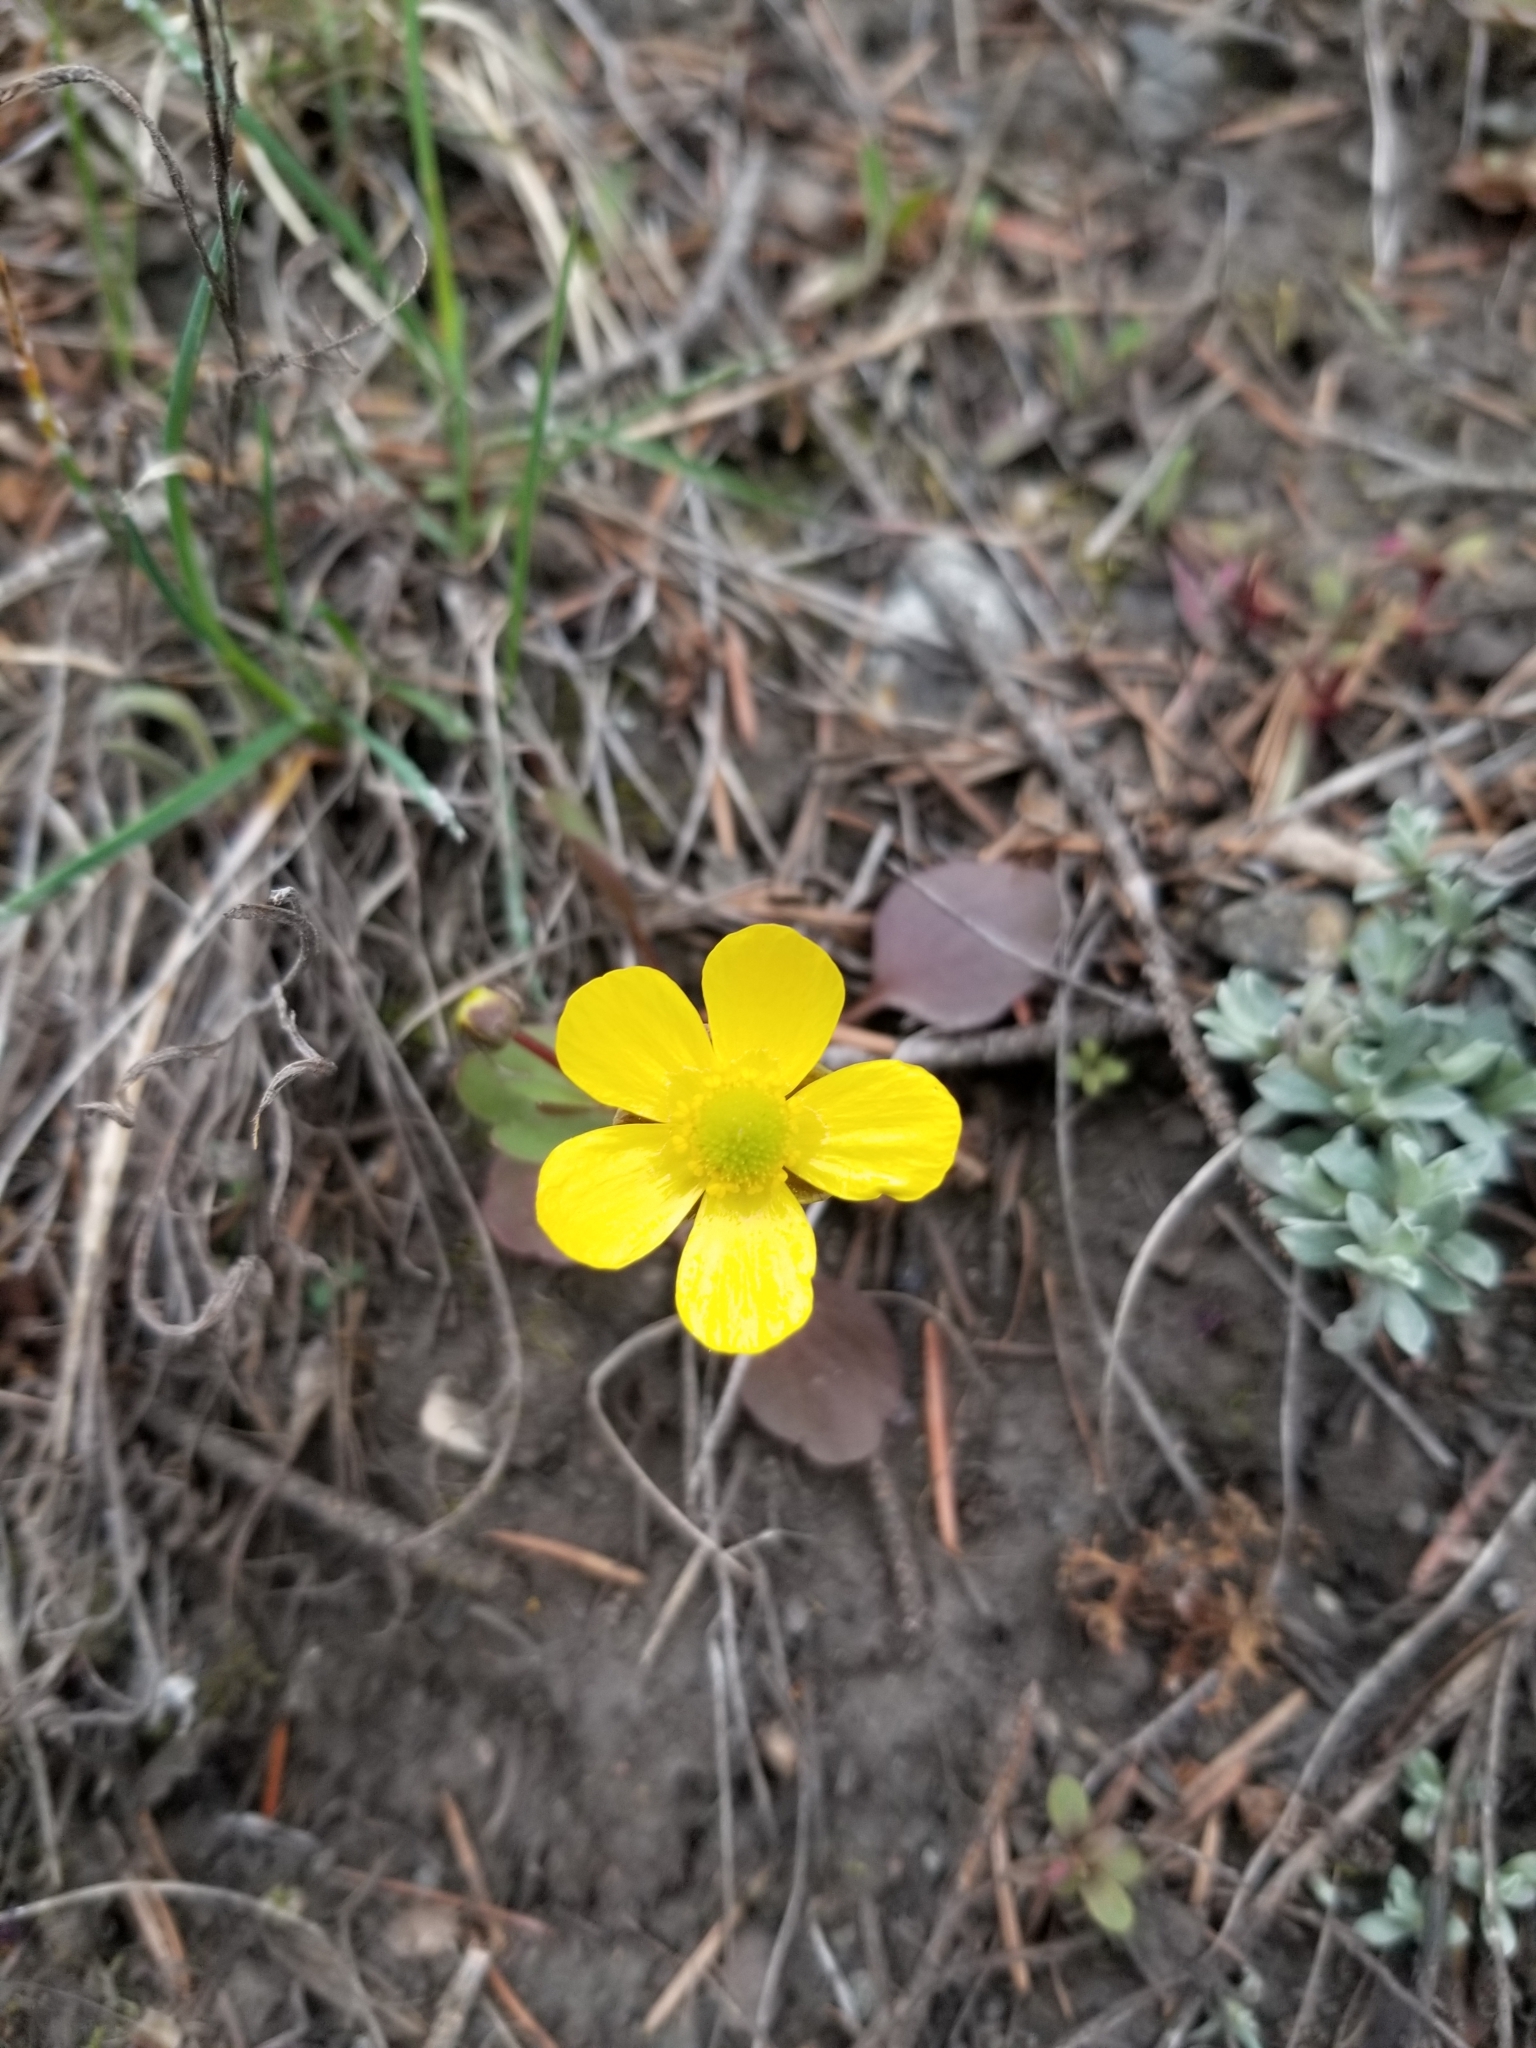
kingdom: Plantae
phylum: Tracheophyta
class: Magnoliopsida
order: Ranunculales
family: Ranunculaceae
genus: Ranunculus
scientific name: Ranunculus glaberrimus
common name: Sagebrush buttercup
